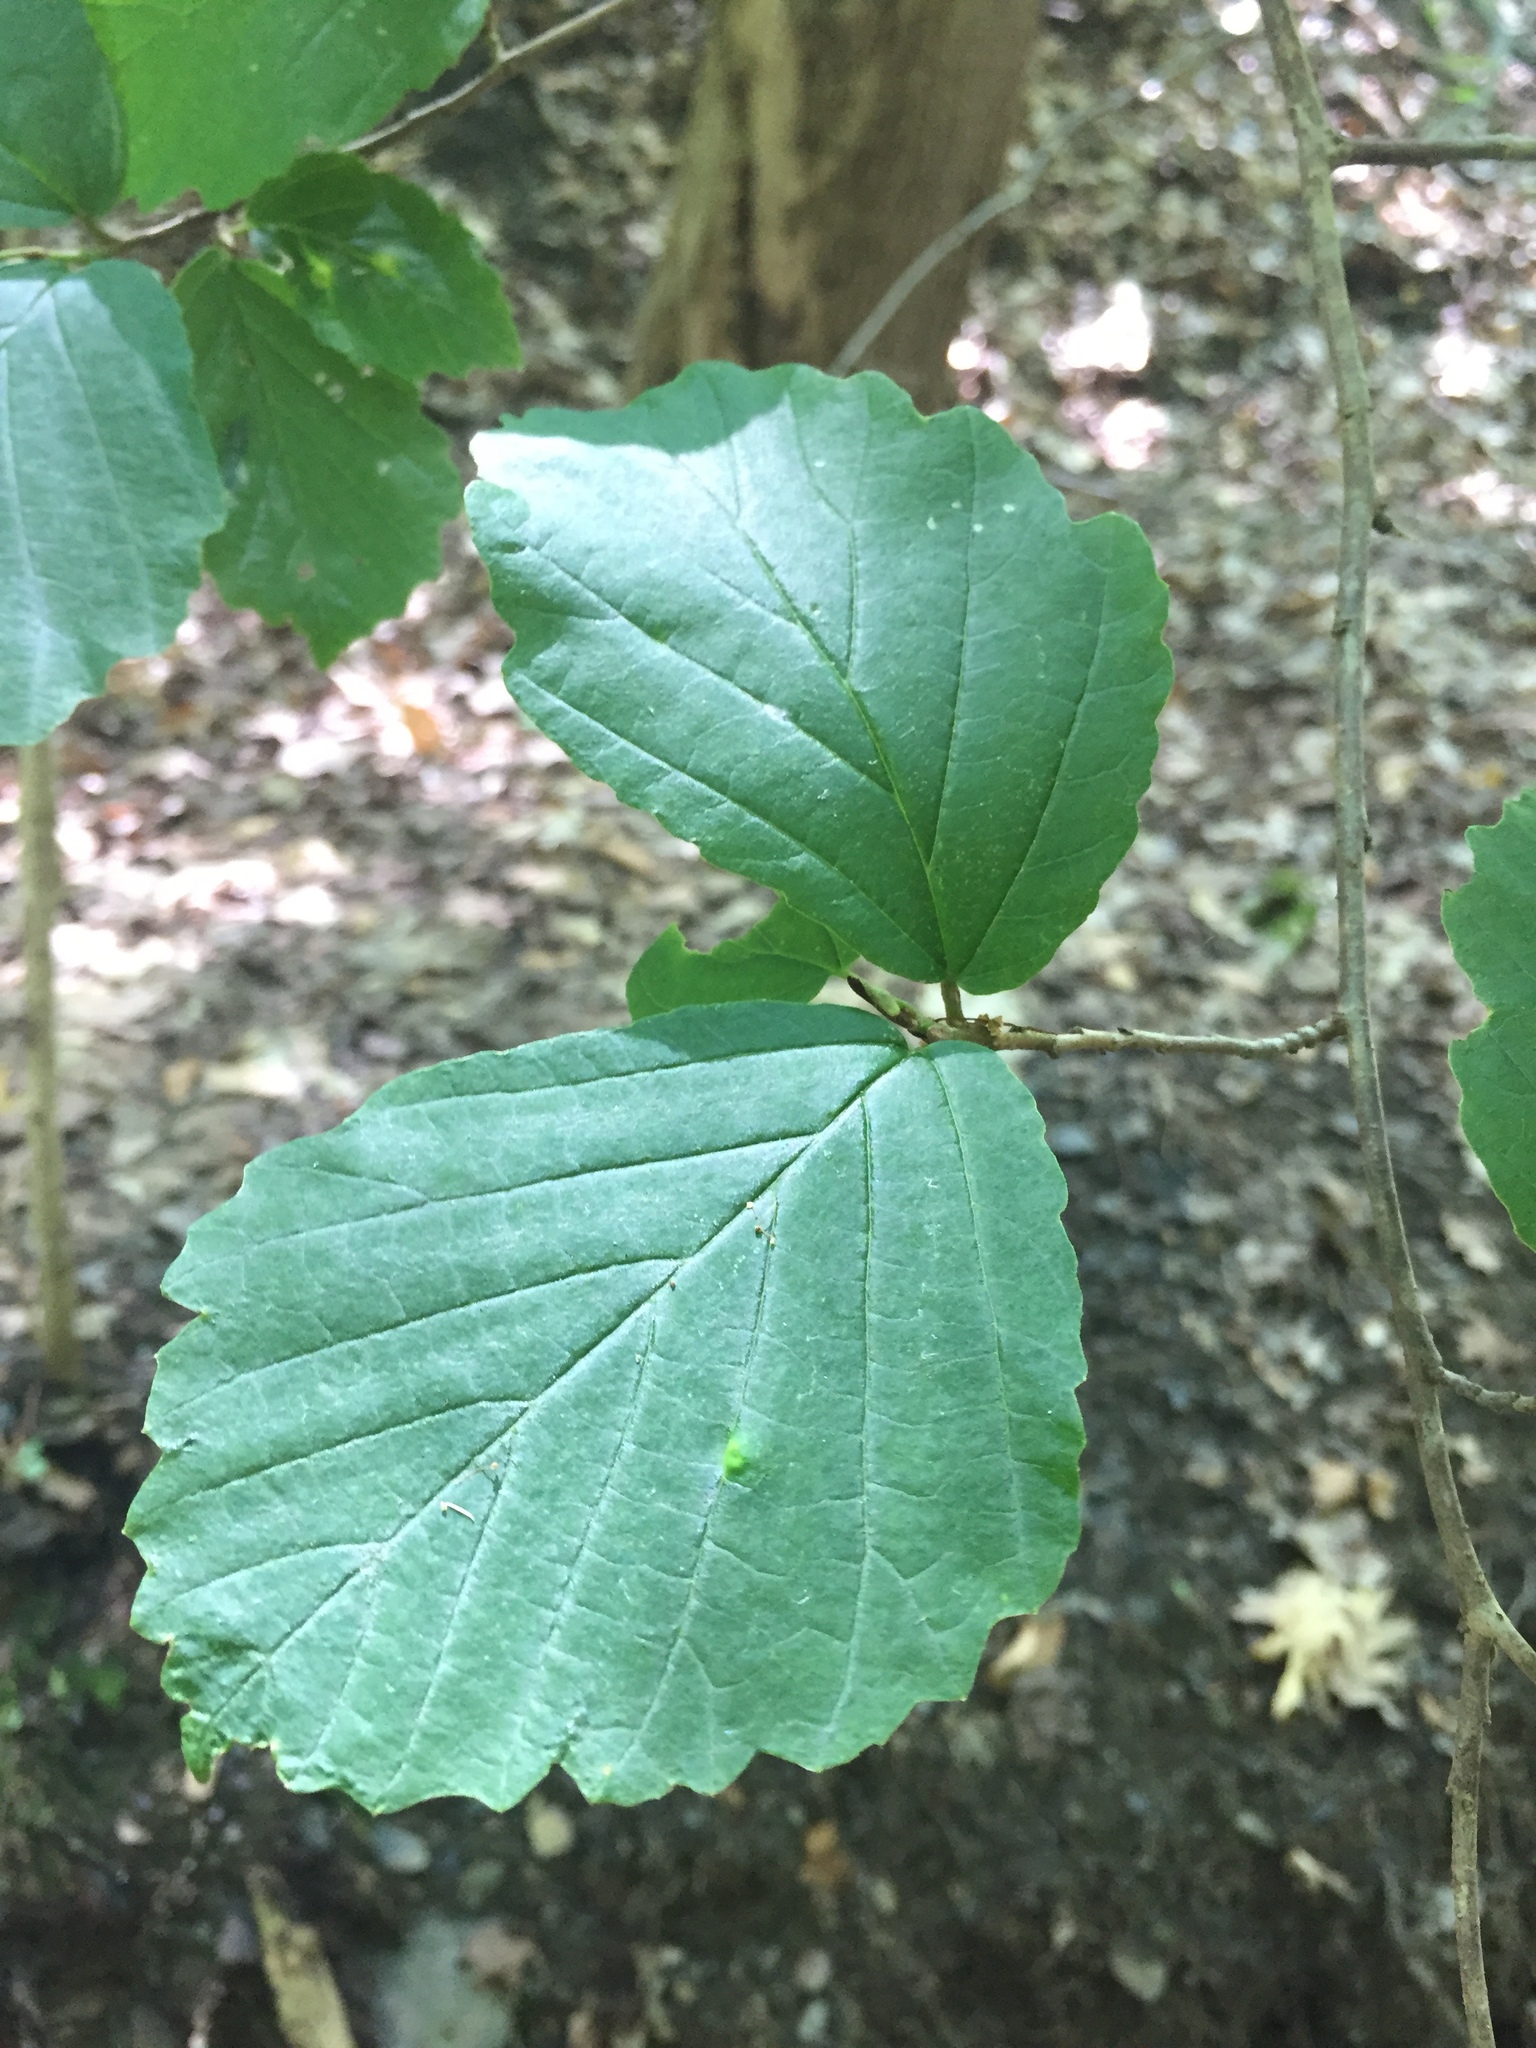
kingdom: Plantae
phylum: Tracheophyta
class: Magnoliopsida
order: Saxifragales
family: Hamamelidaceae
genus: Hamamelis
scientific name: Hamamelis virginiana
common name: Witch-hazel
